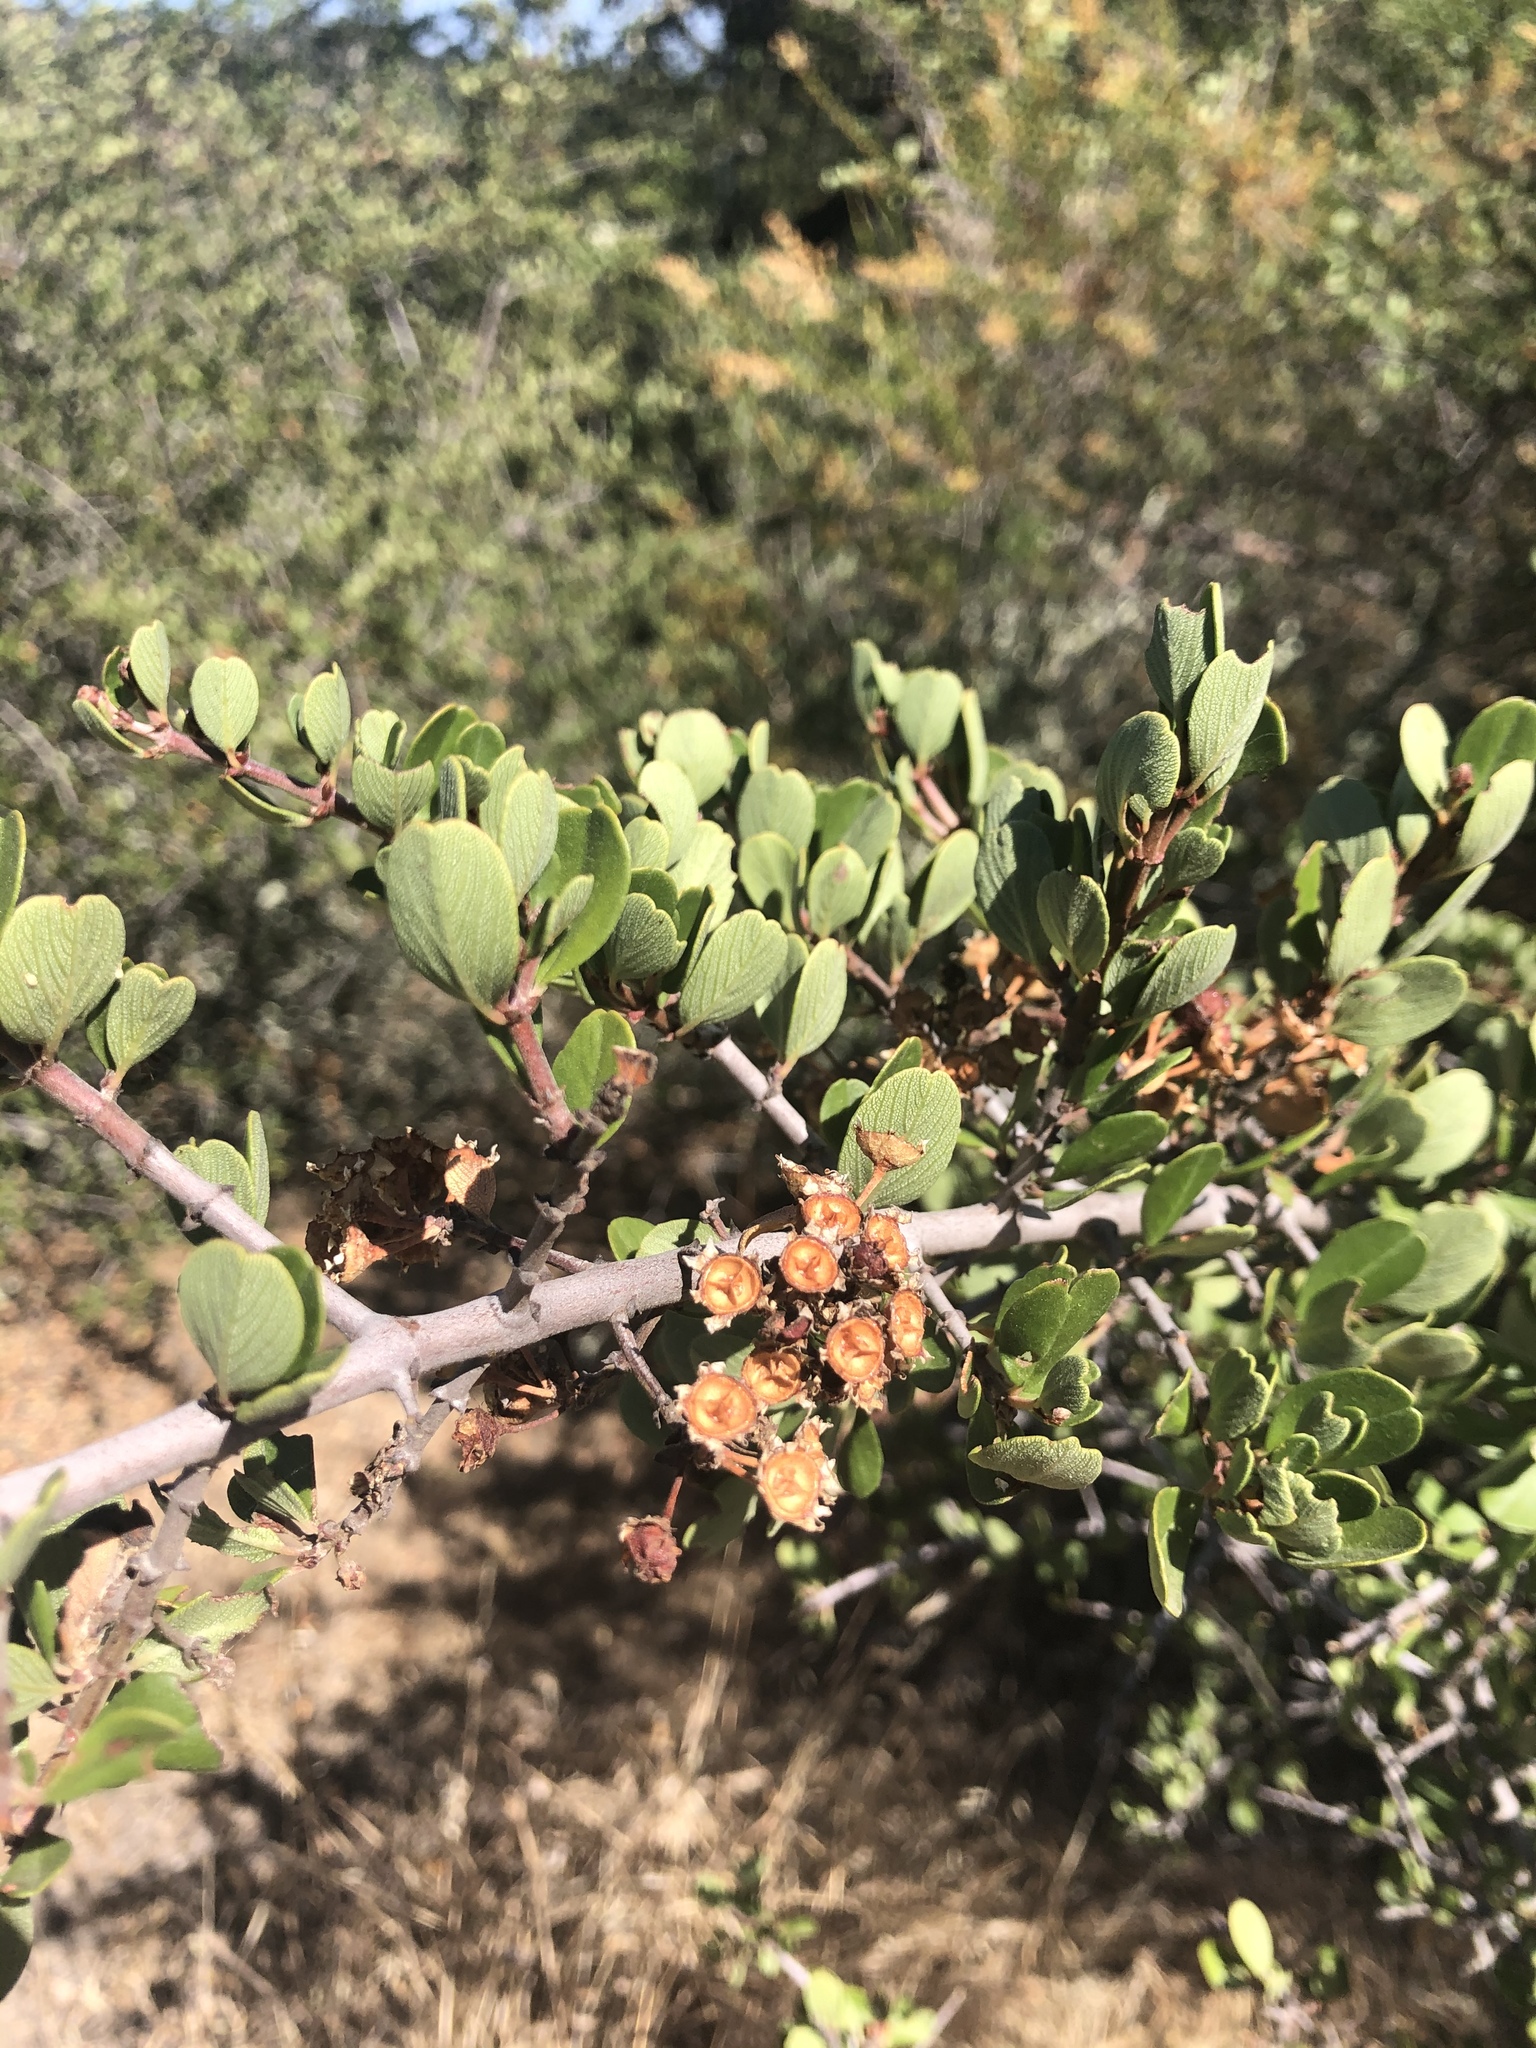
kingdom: Plantae
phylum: Tracheophyta
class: Magnoliopsida
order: Rosales
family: Rhamnaceae
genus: Ceanothus
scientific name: Ceanothus cuneatus
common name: Cuneate ceanothus
